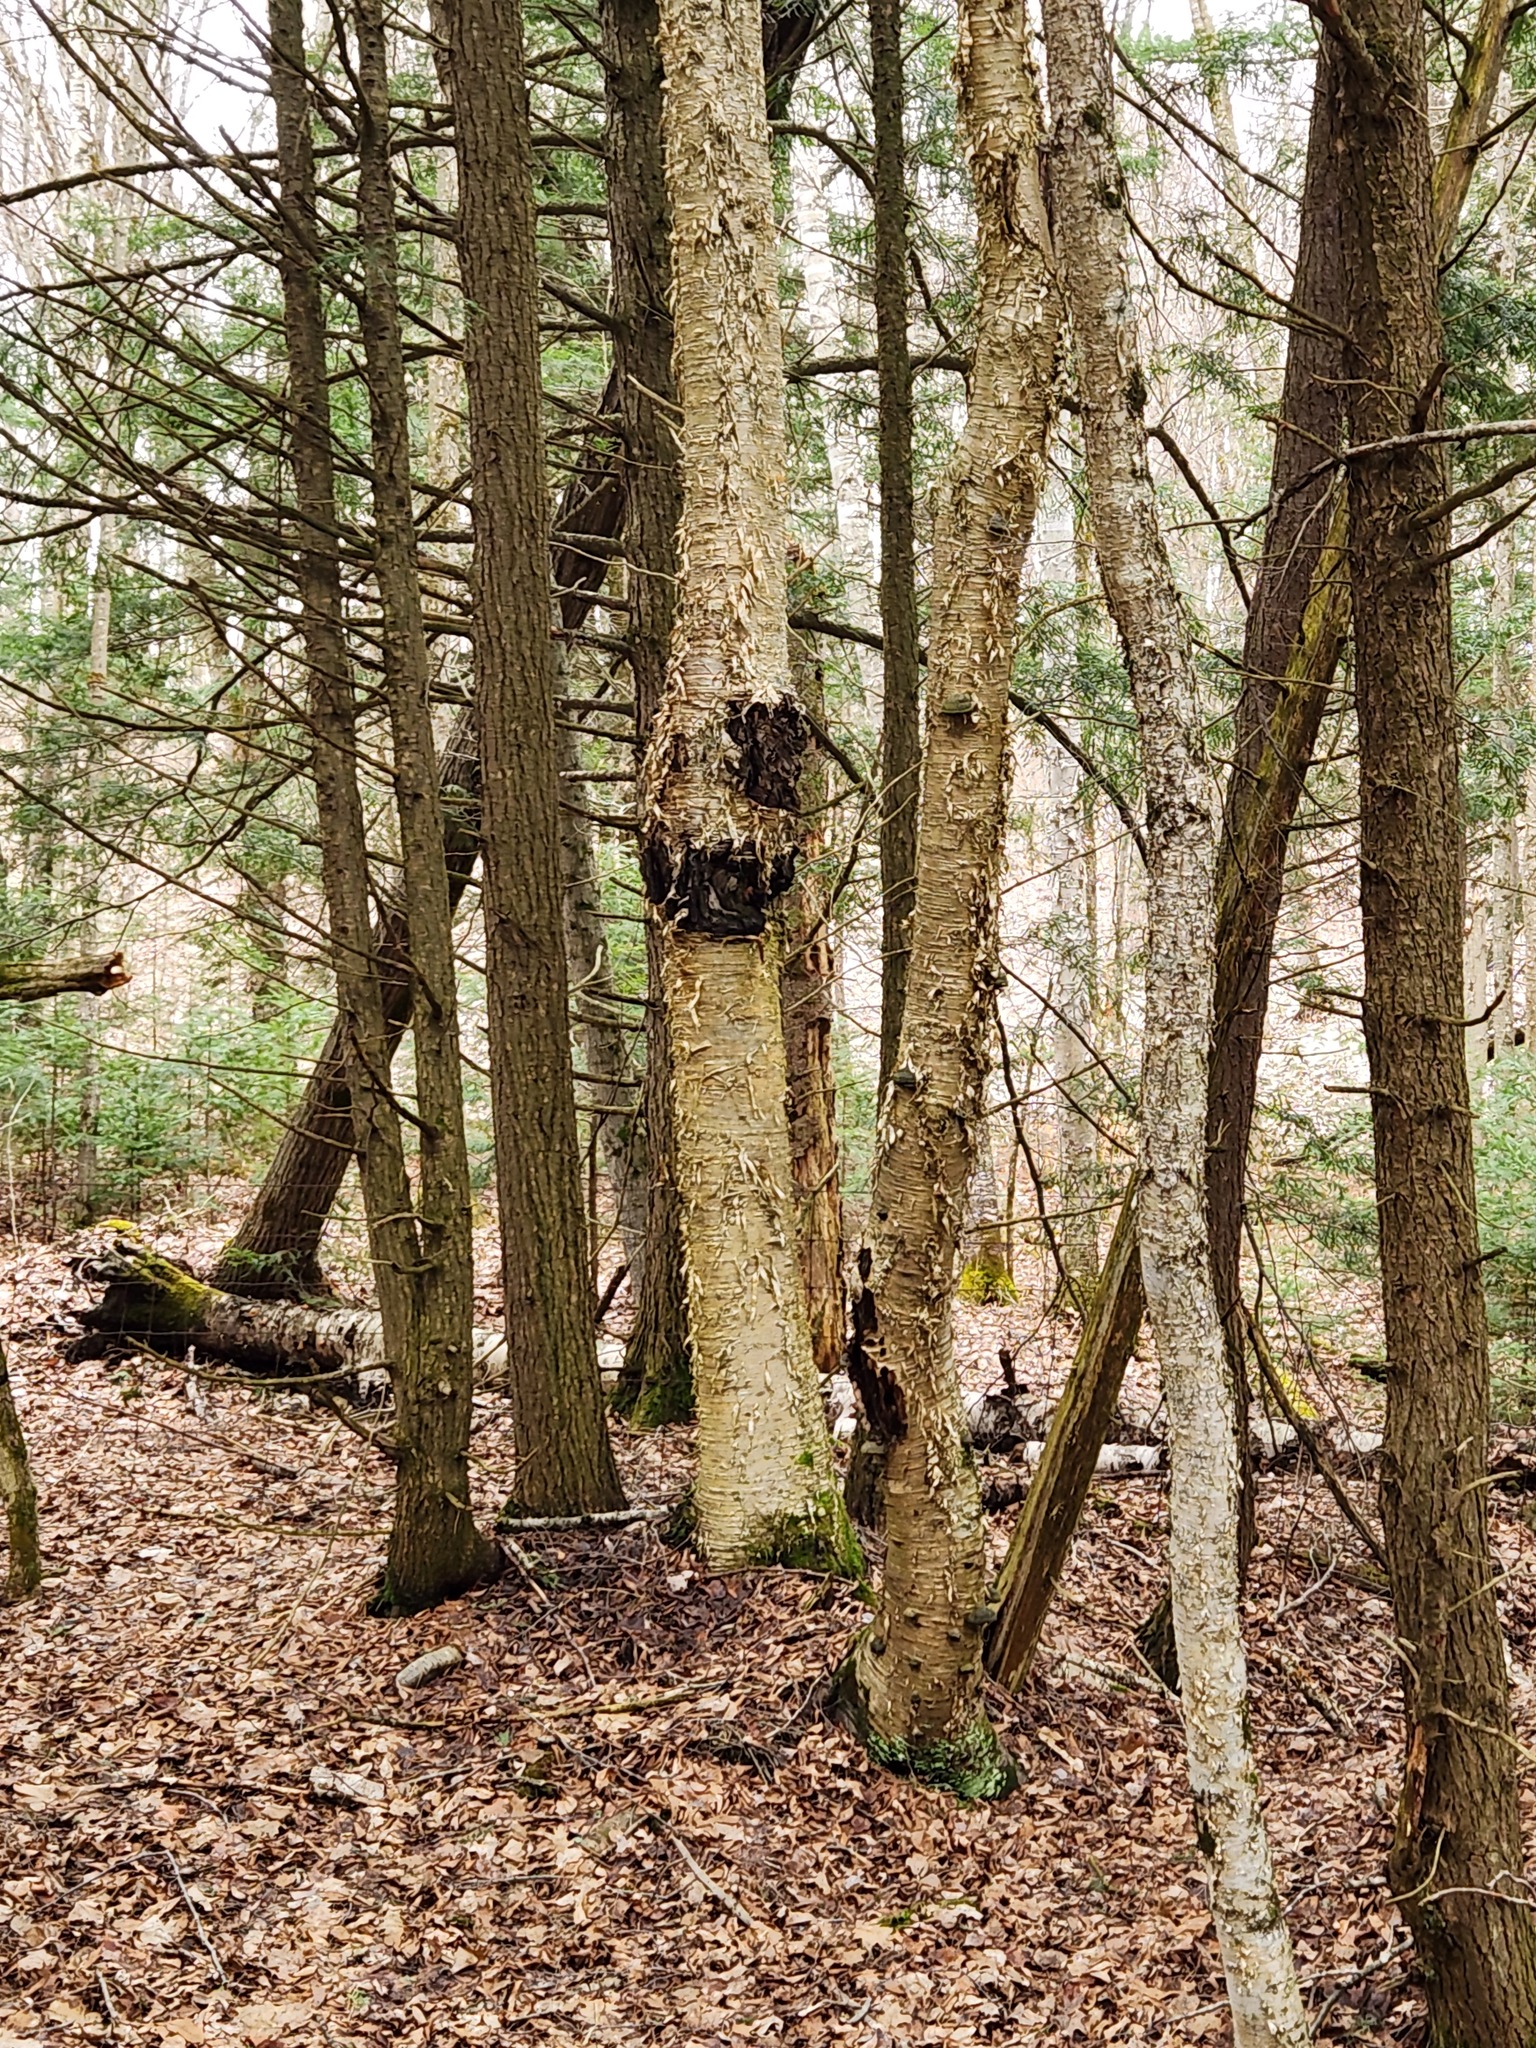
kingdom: Plantae
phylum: Tracheophyta
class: Magnoliopsida
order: Fagales
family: Betulaceae
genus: Betula
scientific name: Betula alleghaniensis
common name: Yellow birch
